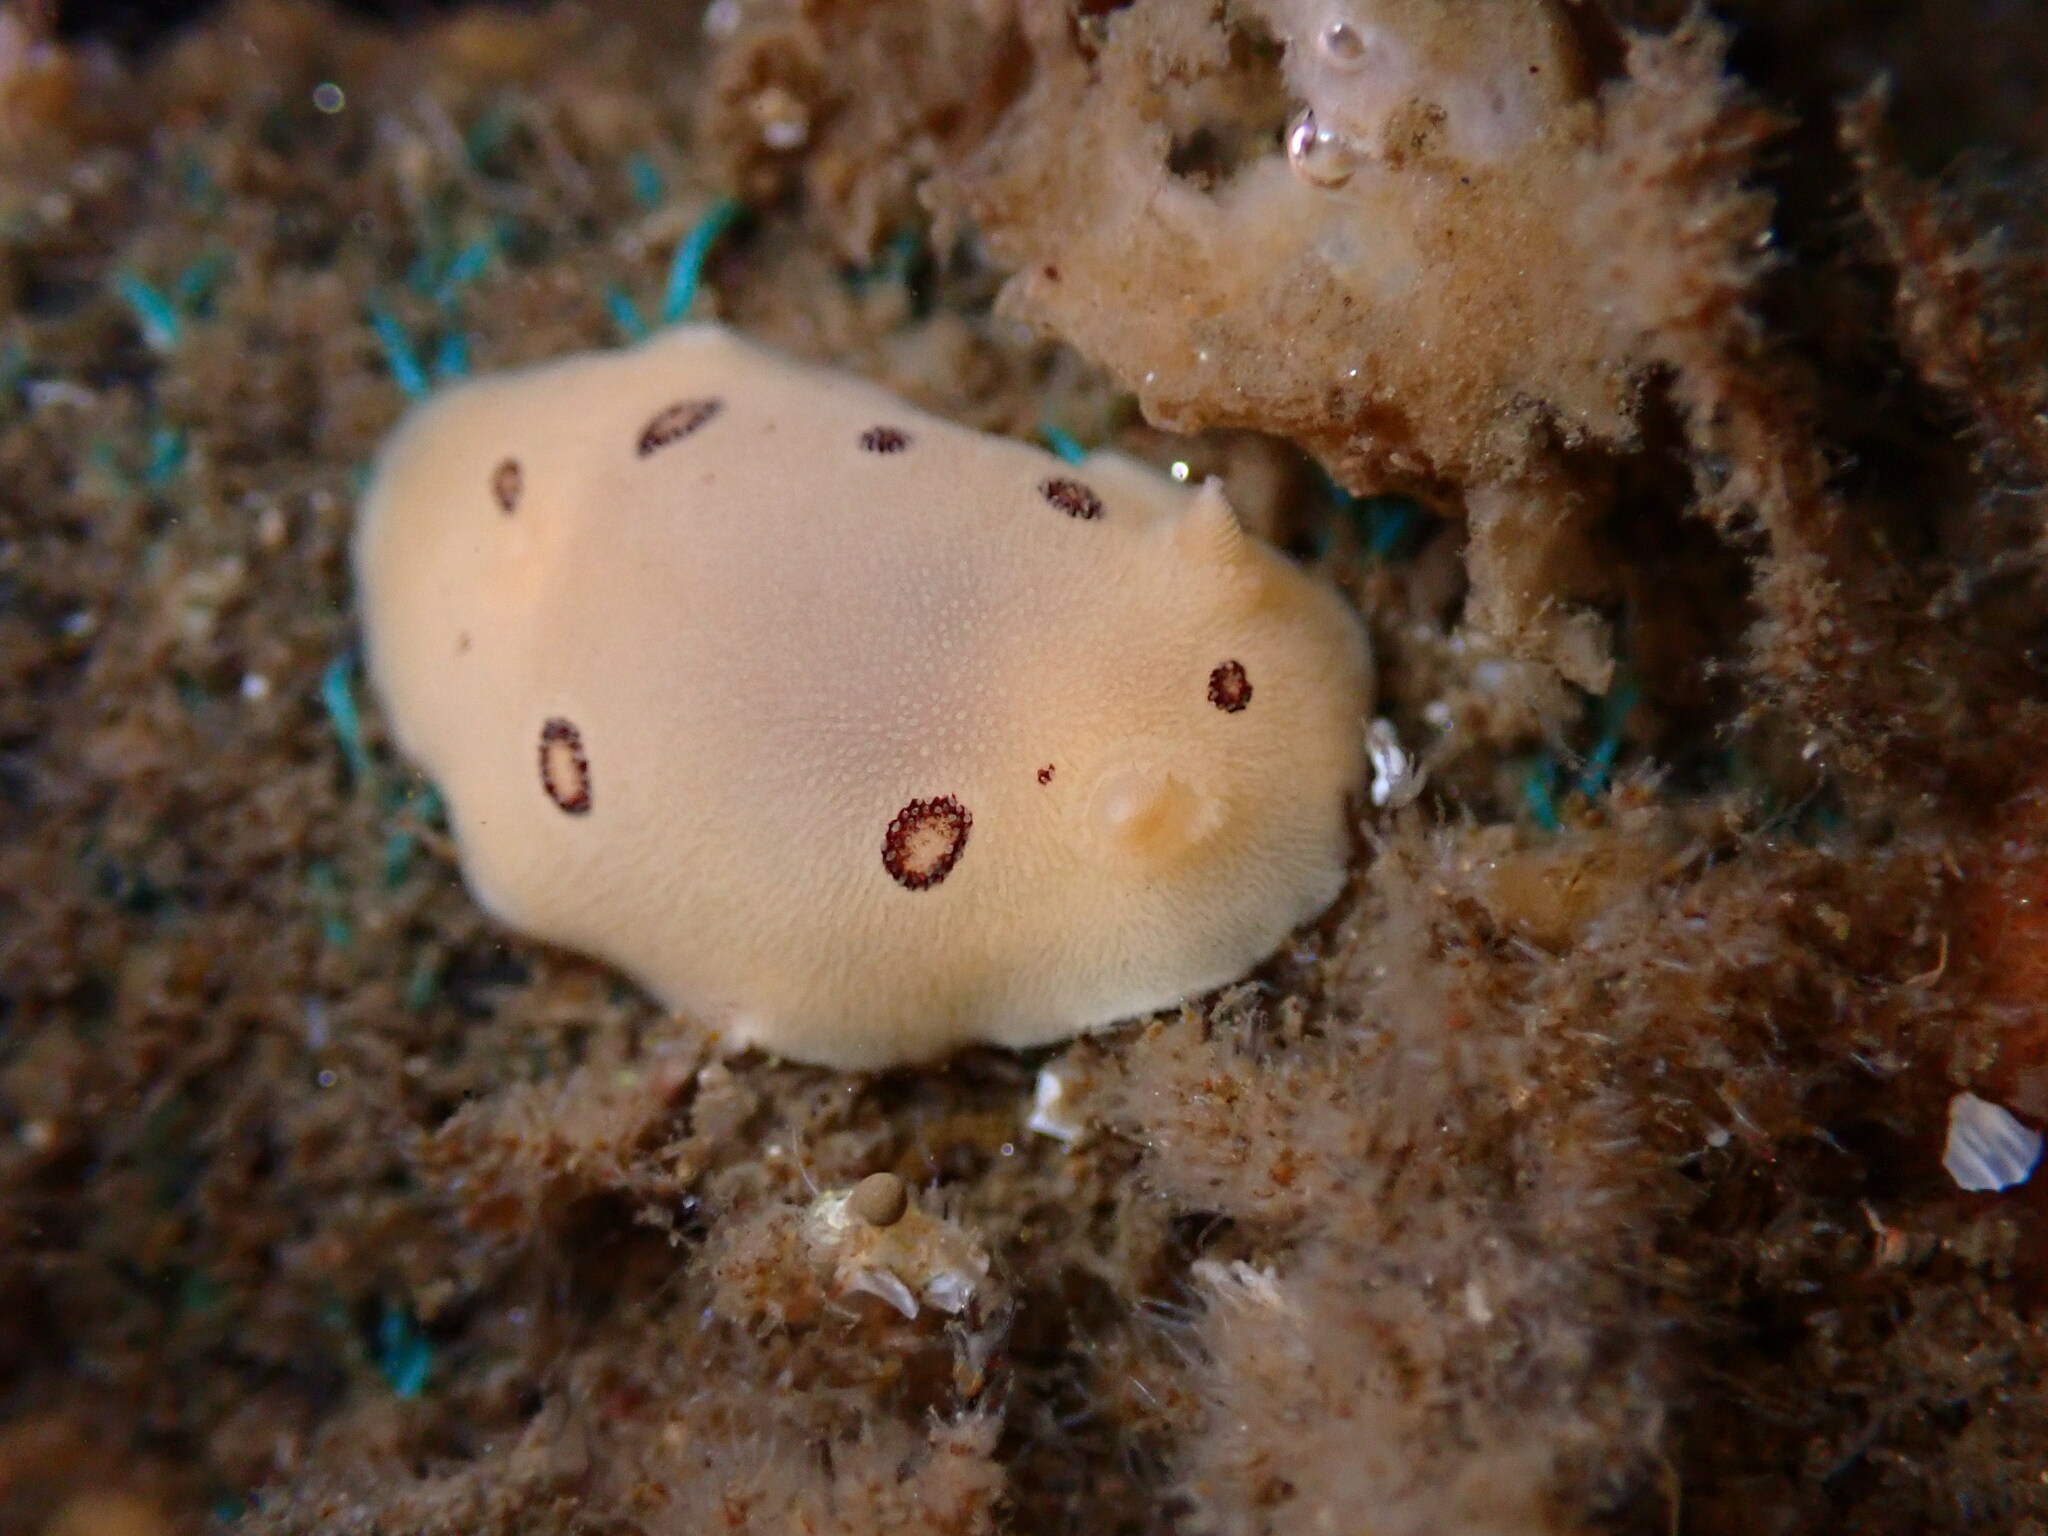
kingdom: Animalia
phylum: Mollusca
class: Gastropoda
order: Nudibranchia
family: Discodorididae
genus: Diaulula
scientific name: Diaulula sandiegensis
